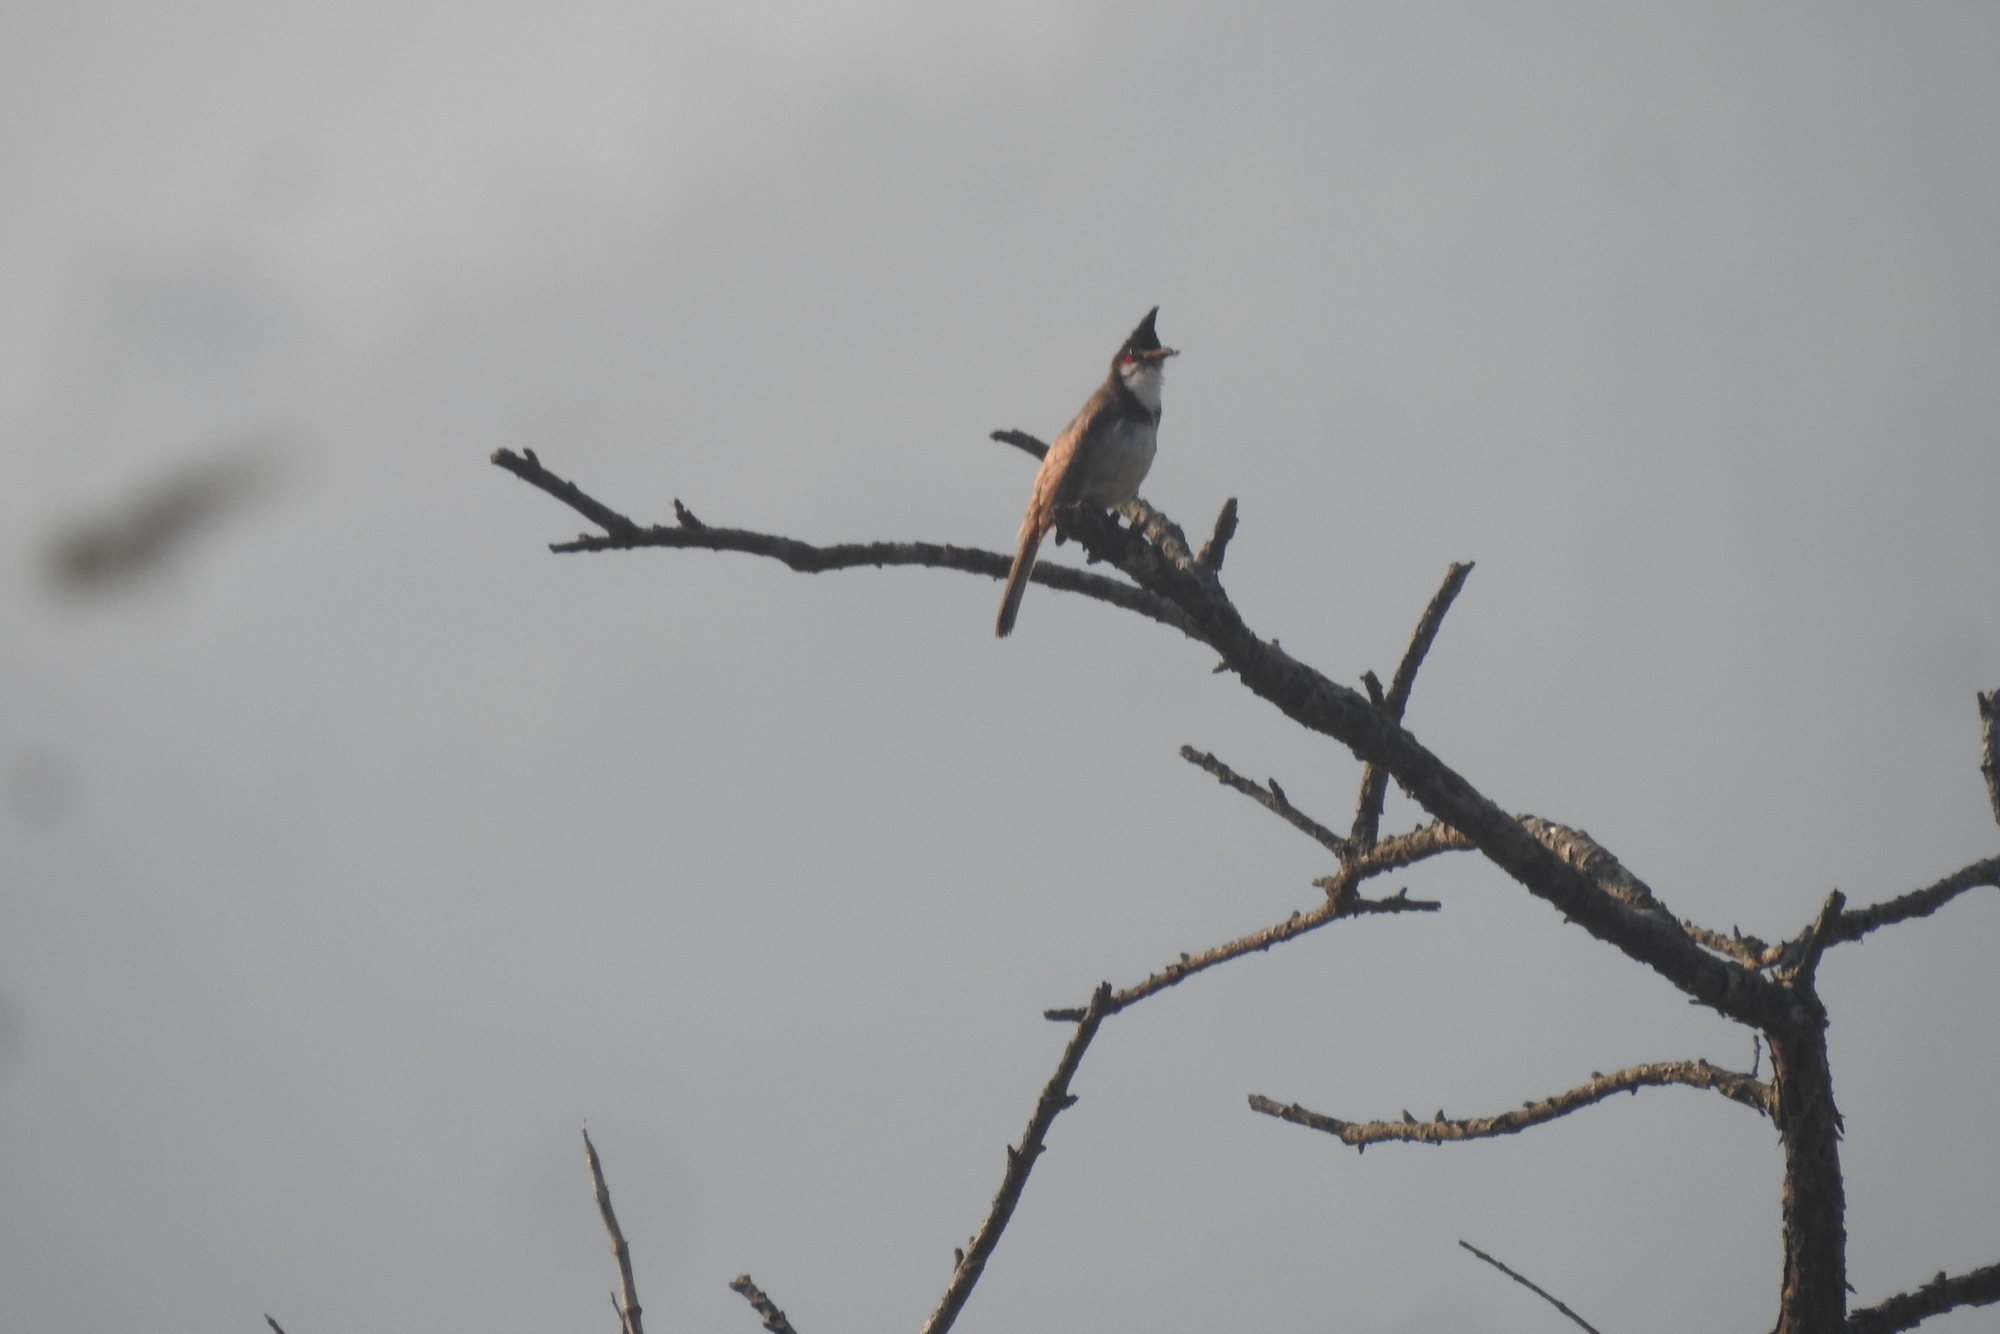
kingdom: Animalia
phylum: Chordata
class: Aves
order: Passeriformes
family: Pycnonotidae
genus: Pycnonotus
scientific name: Pycnonotus jocosus
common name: Red-whiskered bulbul
